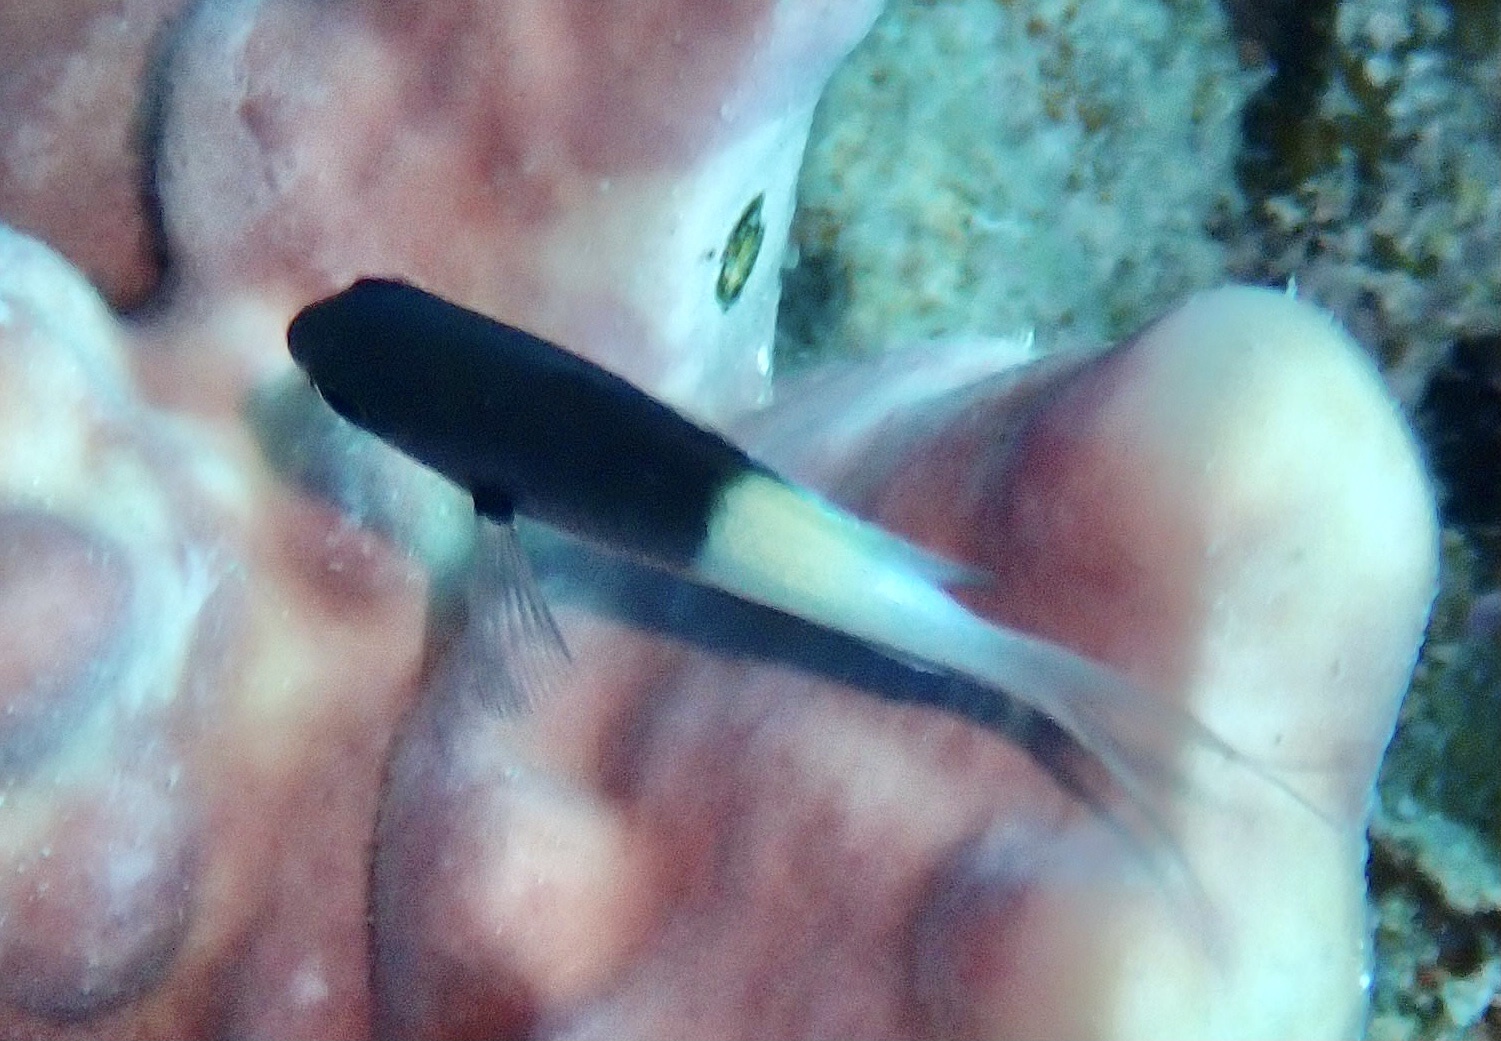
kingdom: Animalia
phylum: Chordata
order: Perciformes
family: Pomacentridae
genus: Chromis
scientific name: Chromis dimidiata
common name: Half-and-half chromis
